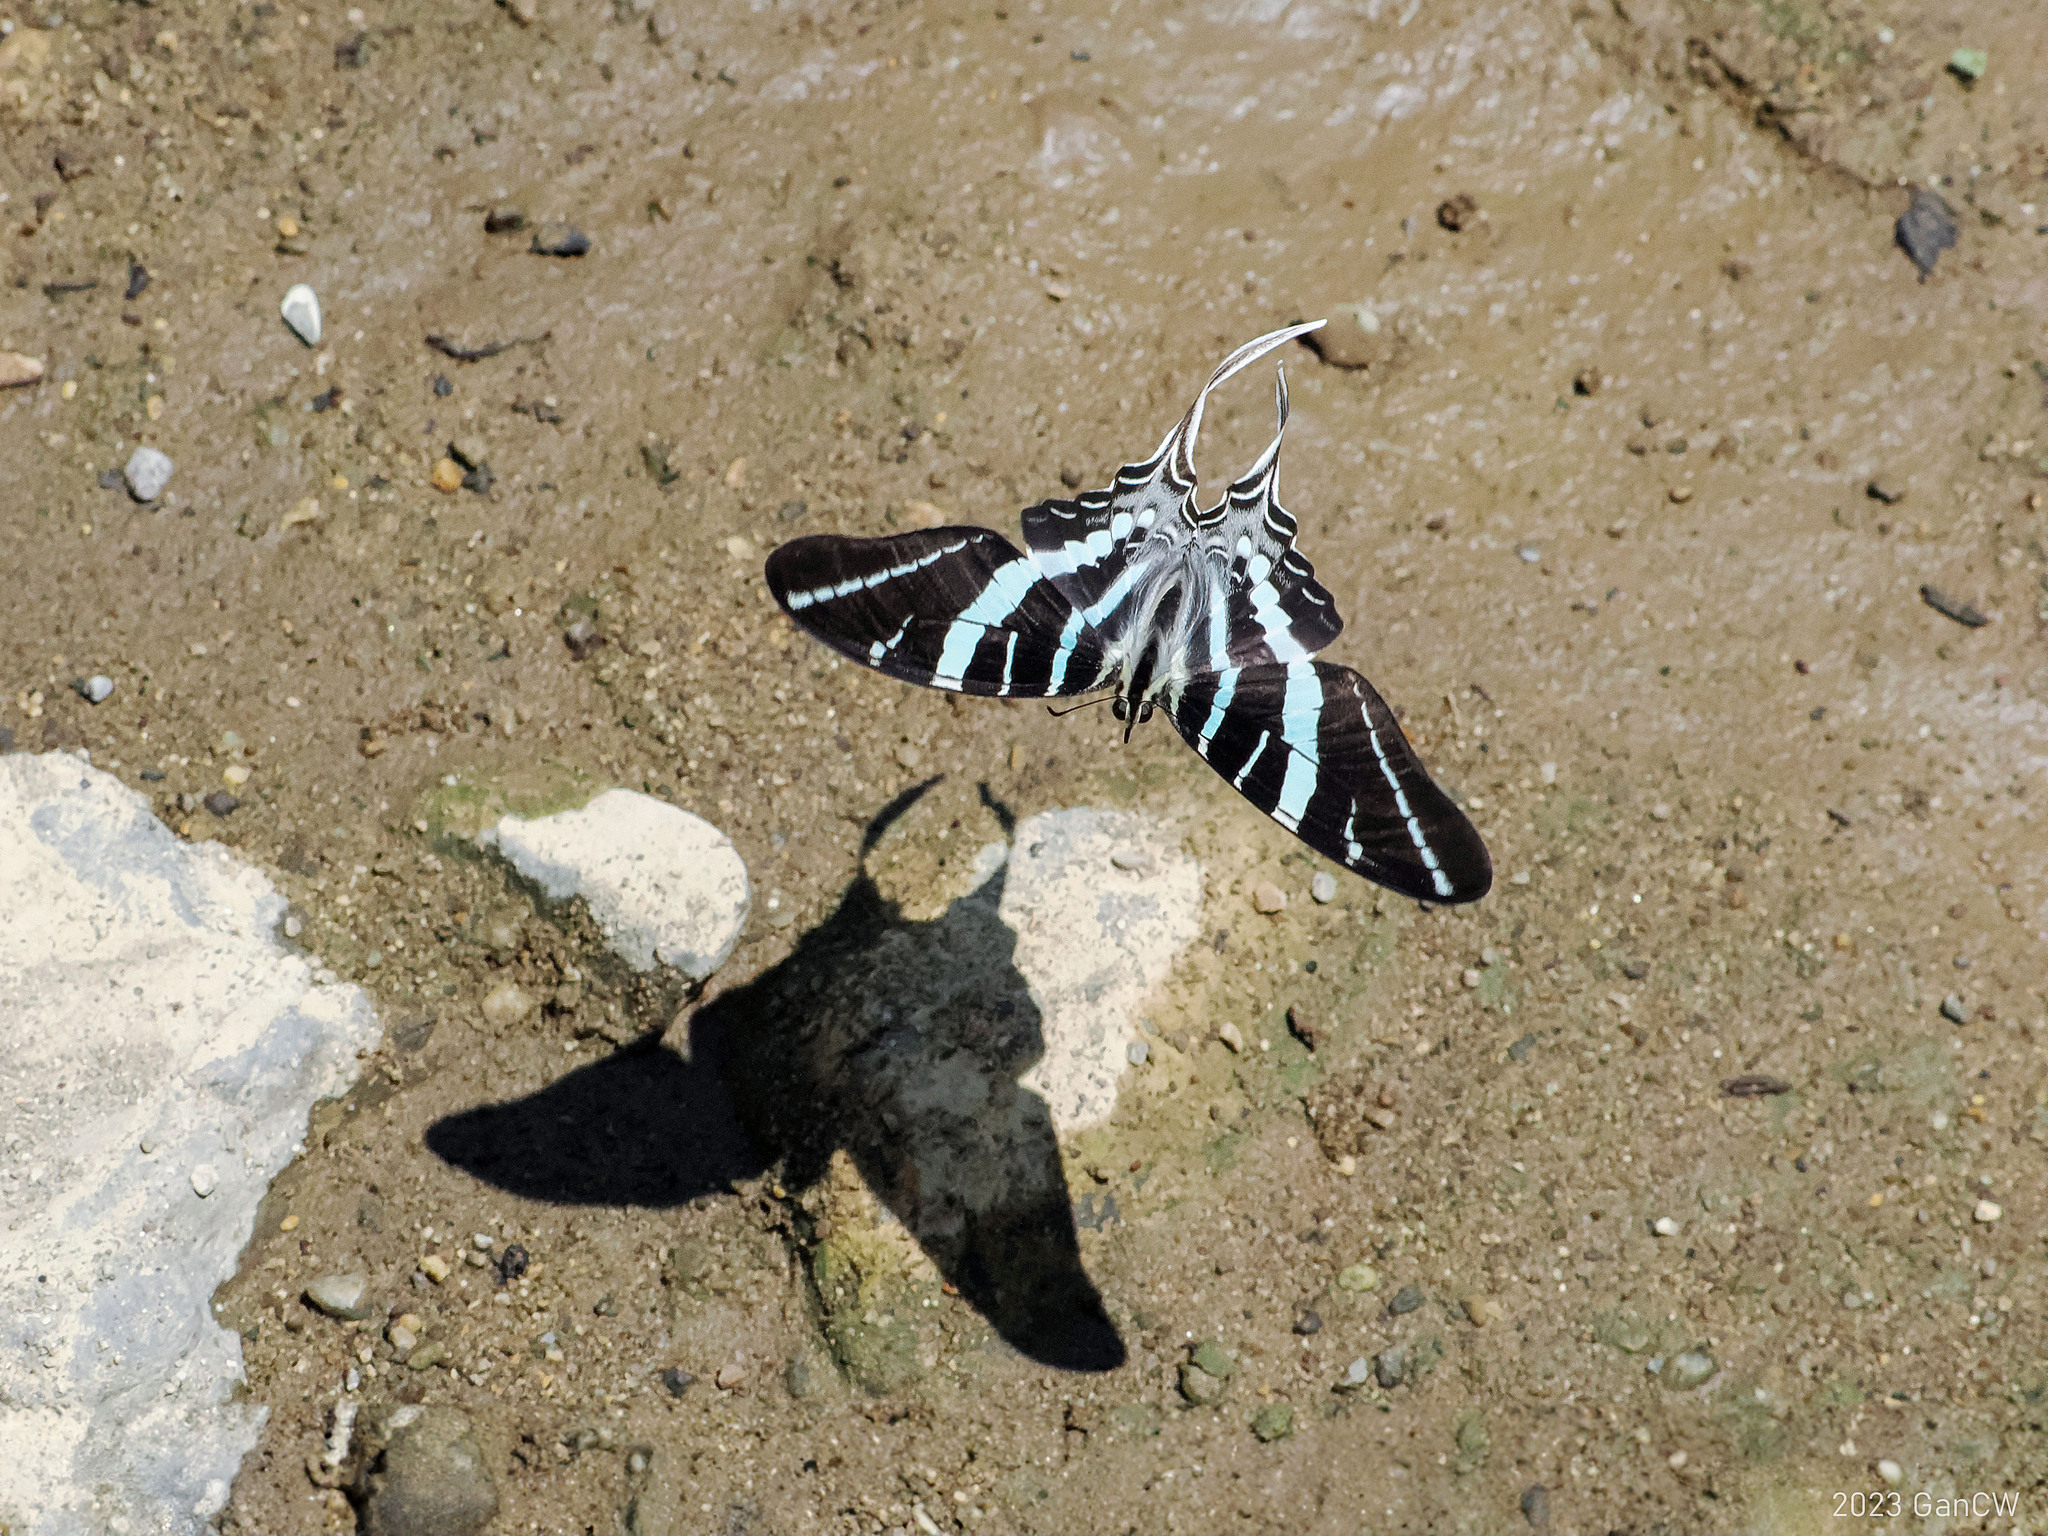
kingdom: Animalia
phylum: Arthropoda
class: Insecta
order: Lepidoptera
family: Papilionidae
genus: Graphium
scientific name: Graphium rhesus
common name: Monkey swordtail
